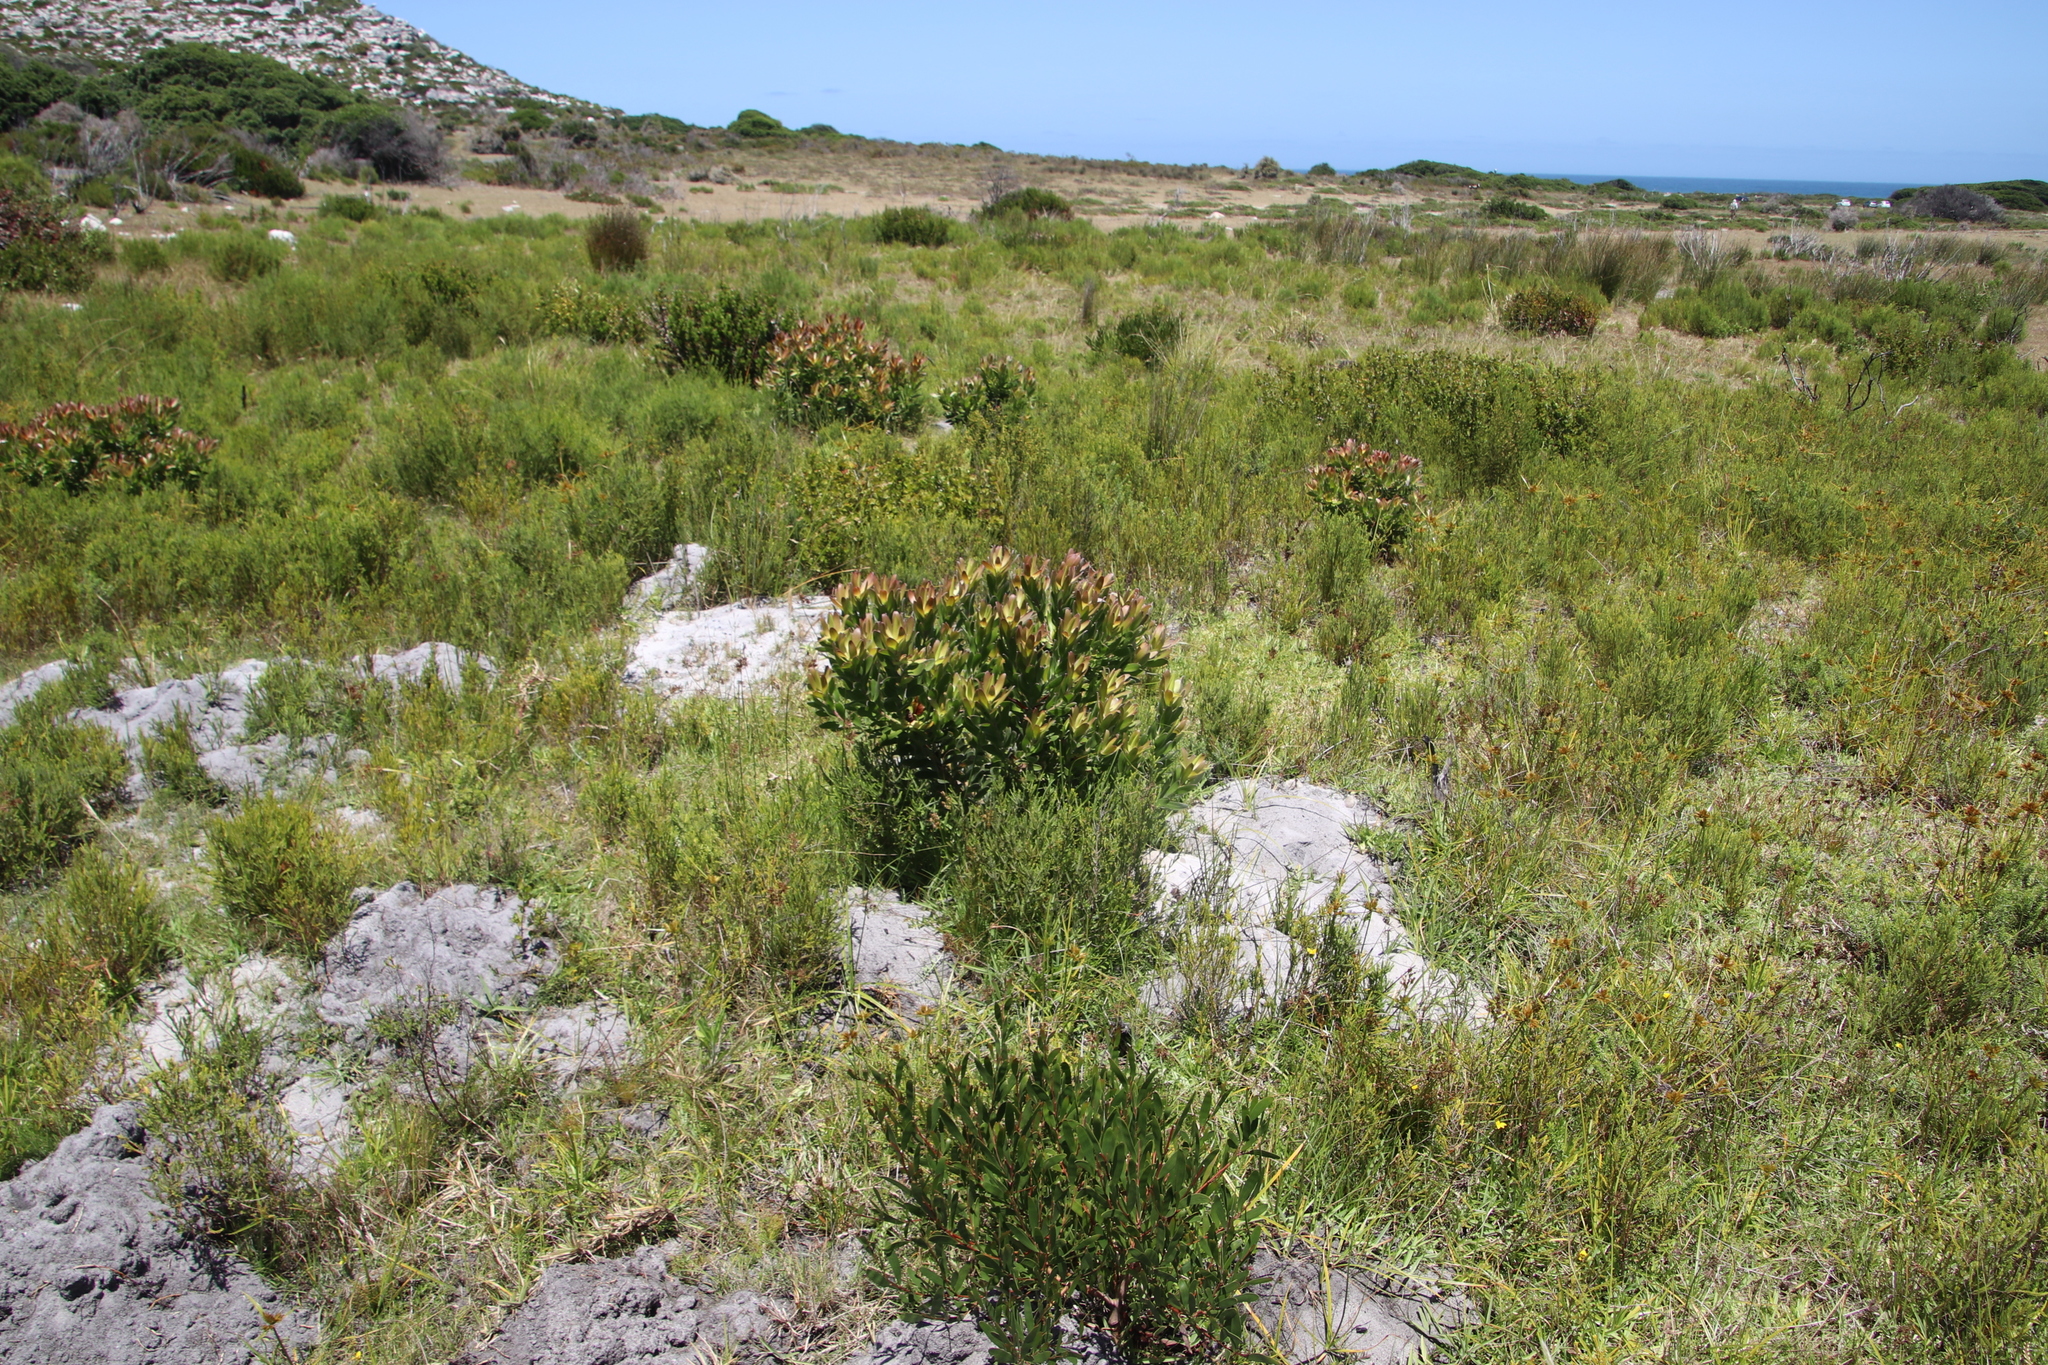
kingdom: Plantae
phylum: Tracheophyta
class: Magnoliopsida
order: Proteales
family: Proteaceae
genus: Leucadendron
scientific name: Leucadendron laureolum
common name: Golden sunshinebush
